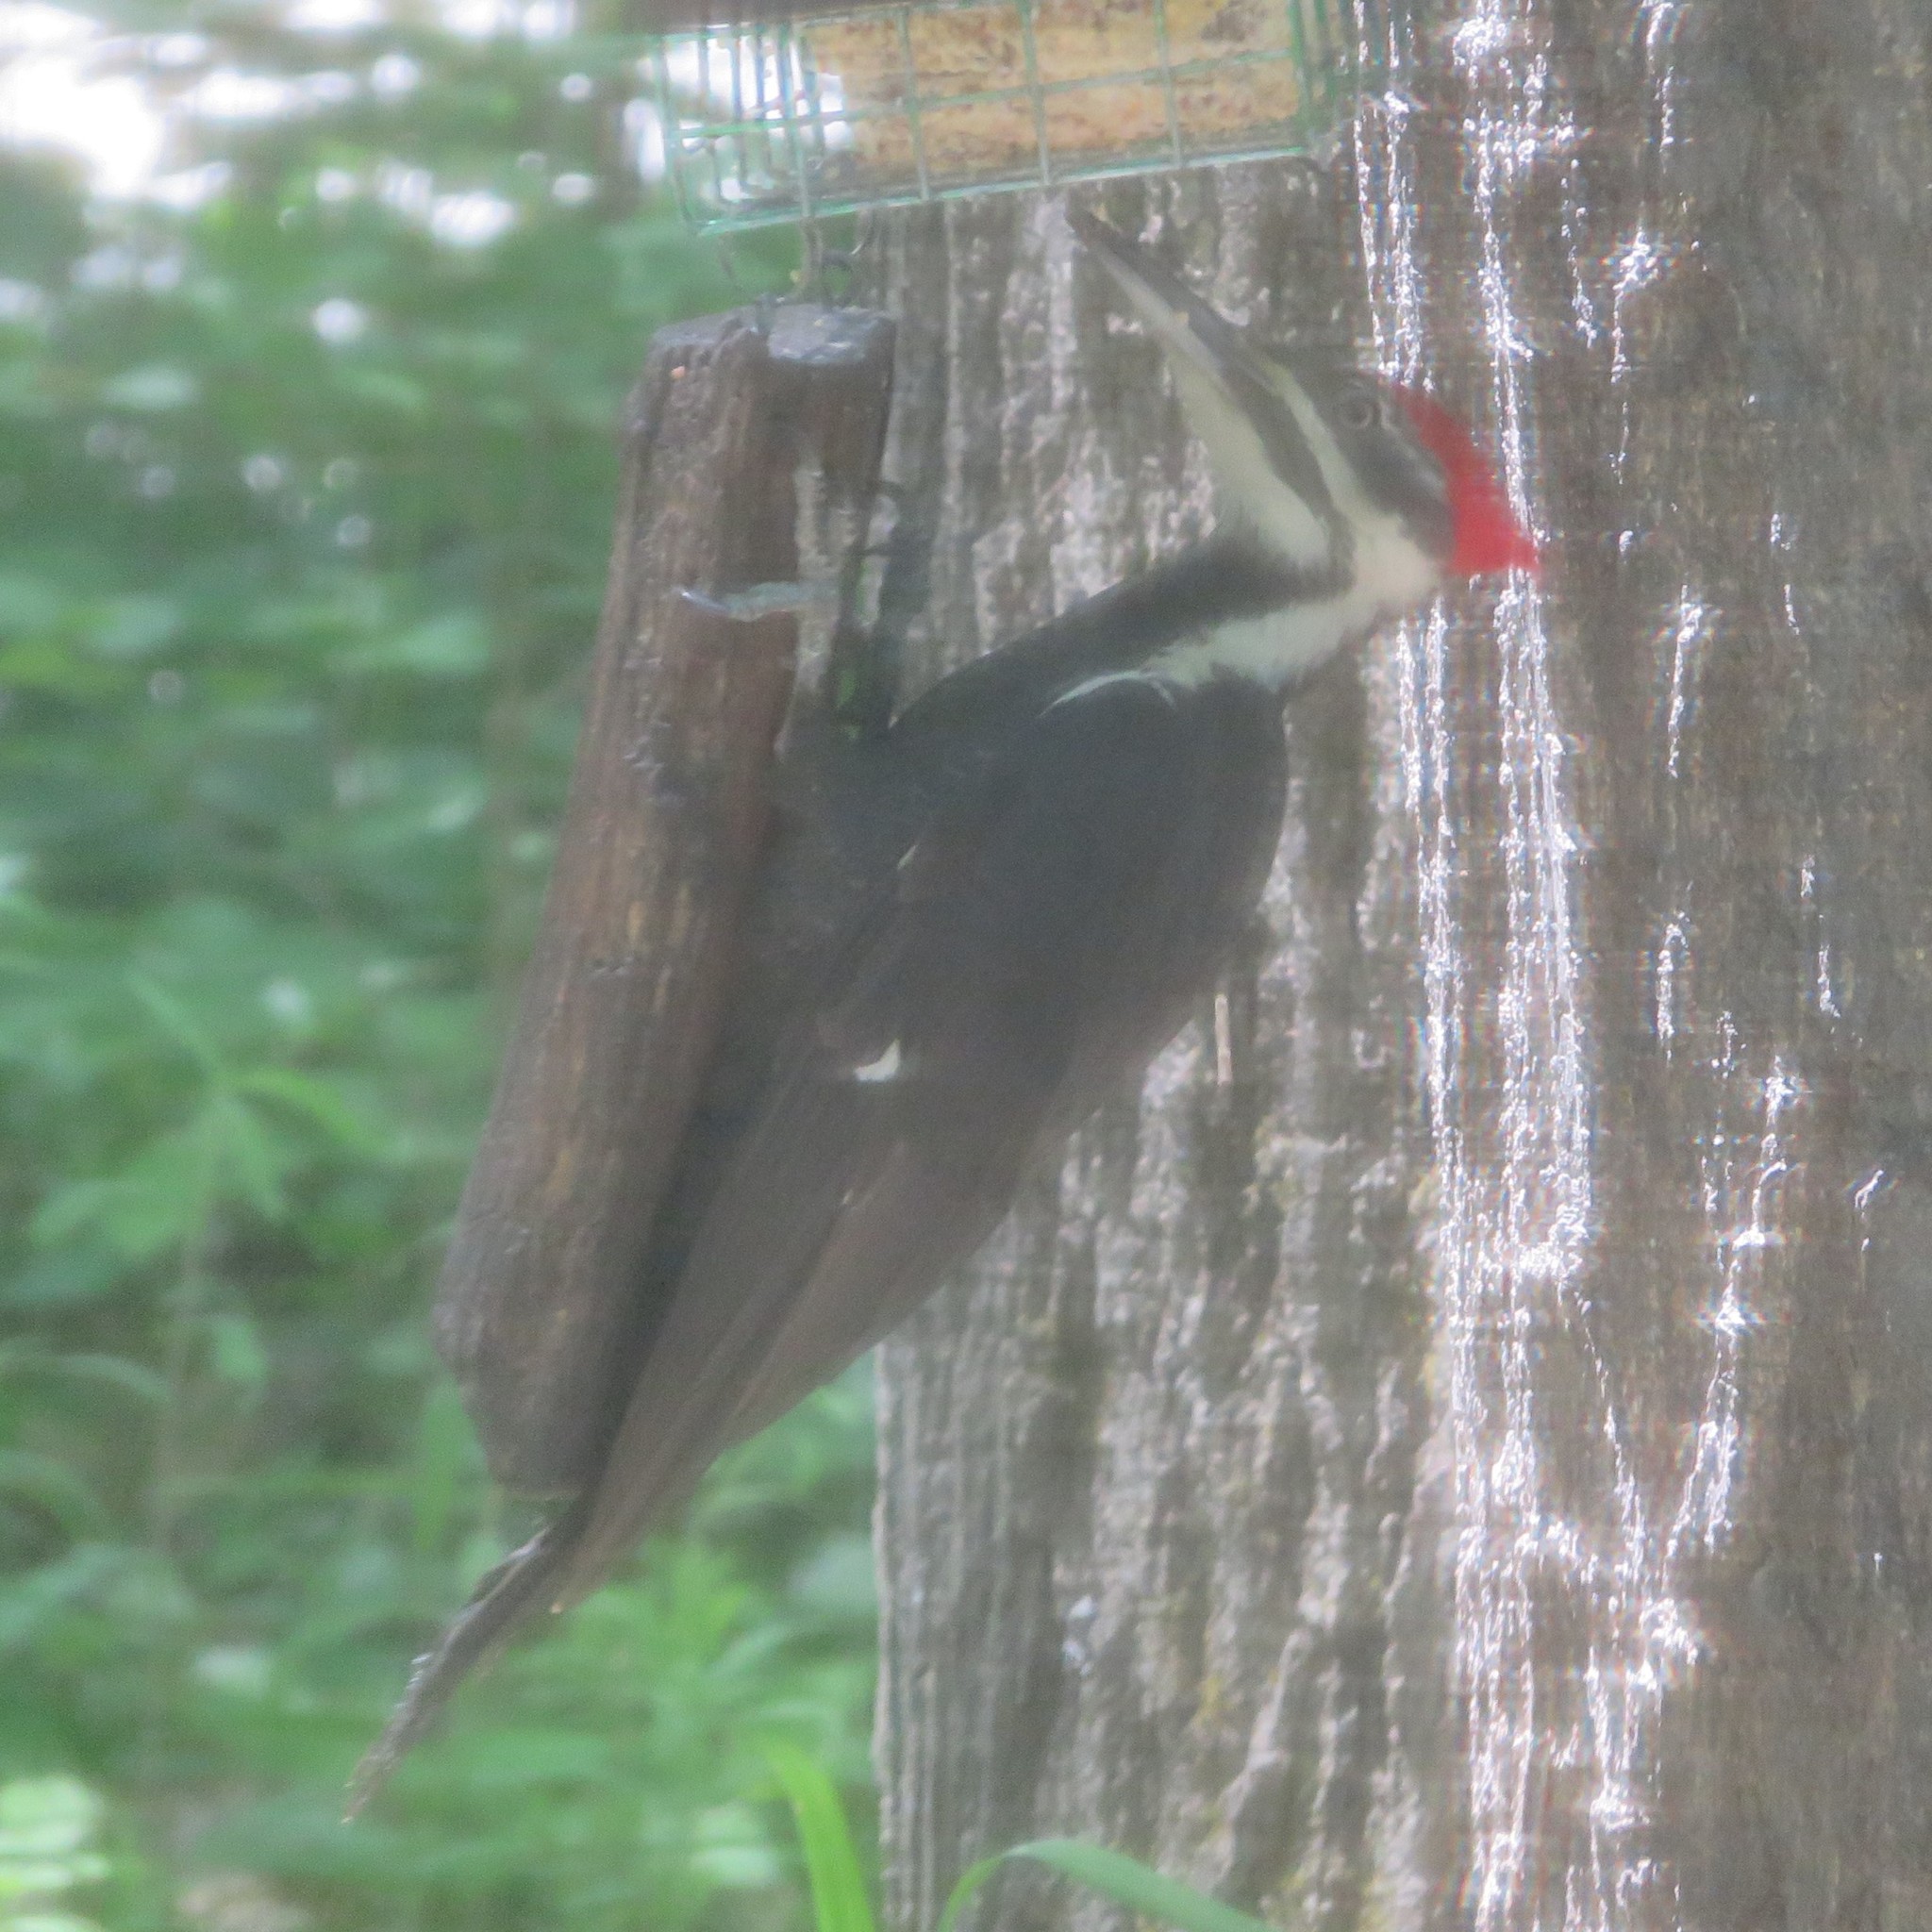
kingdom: Animalia
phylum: Chordata
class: Aves
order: Piciformes
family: Picidae
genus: Dryocopus
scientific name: Dryocopus pileatus
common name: Pileated woodpecker
